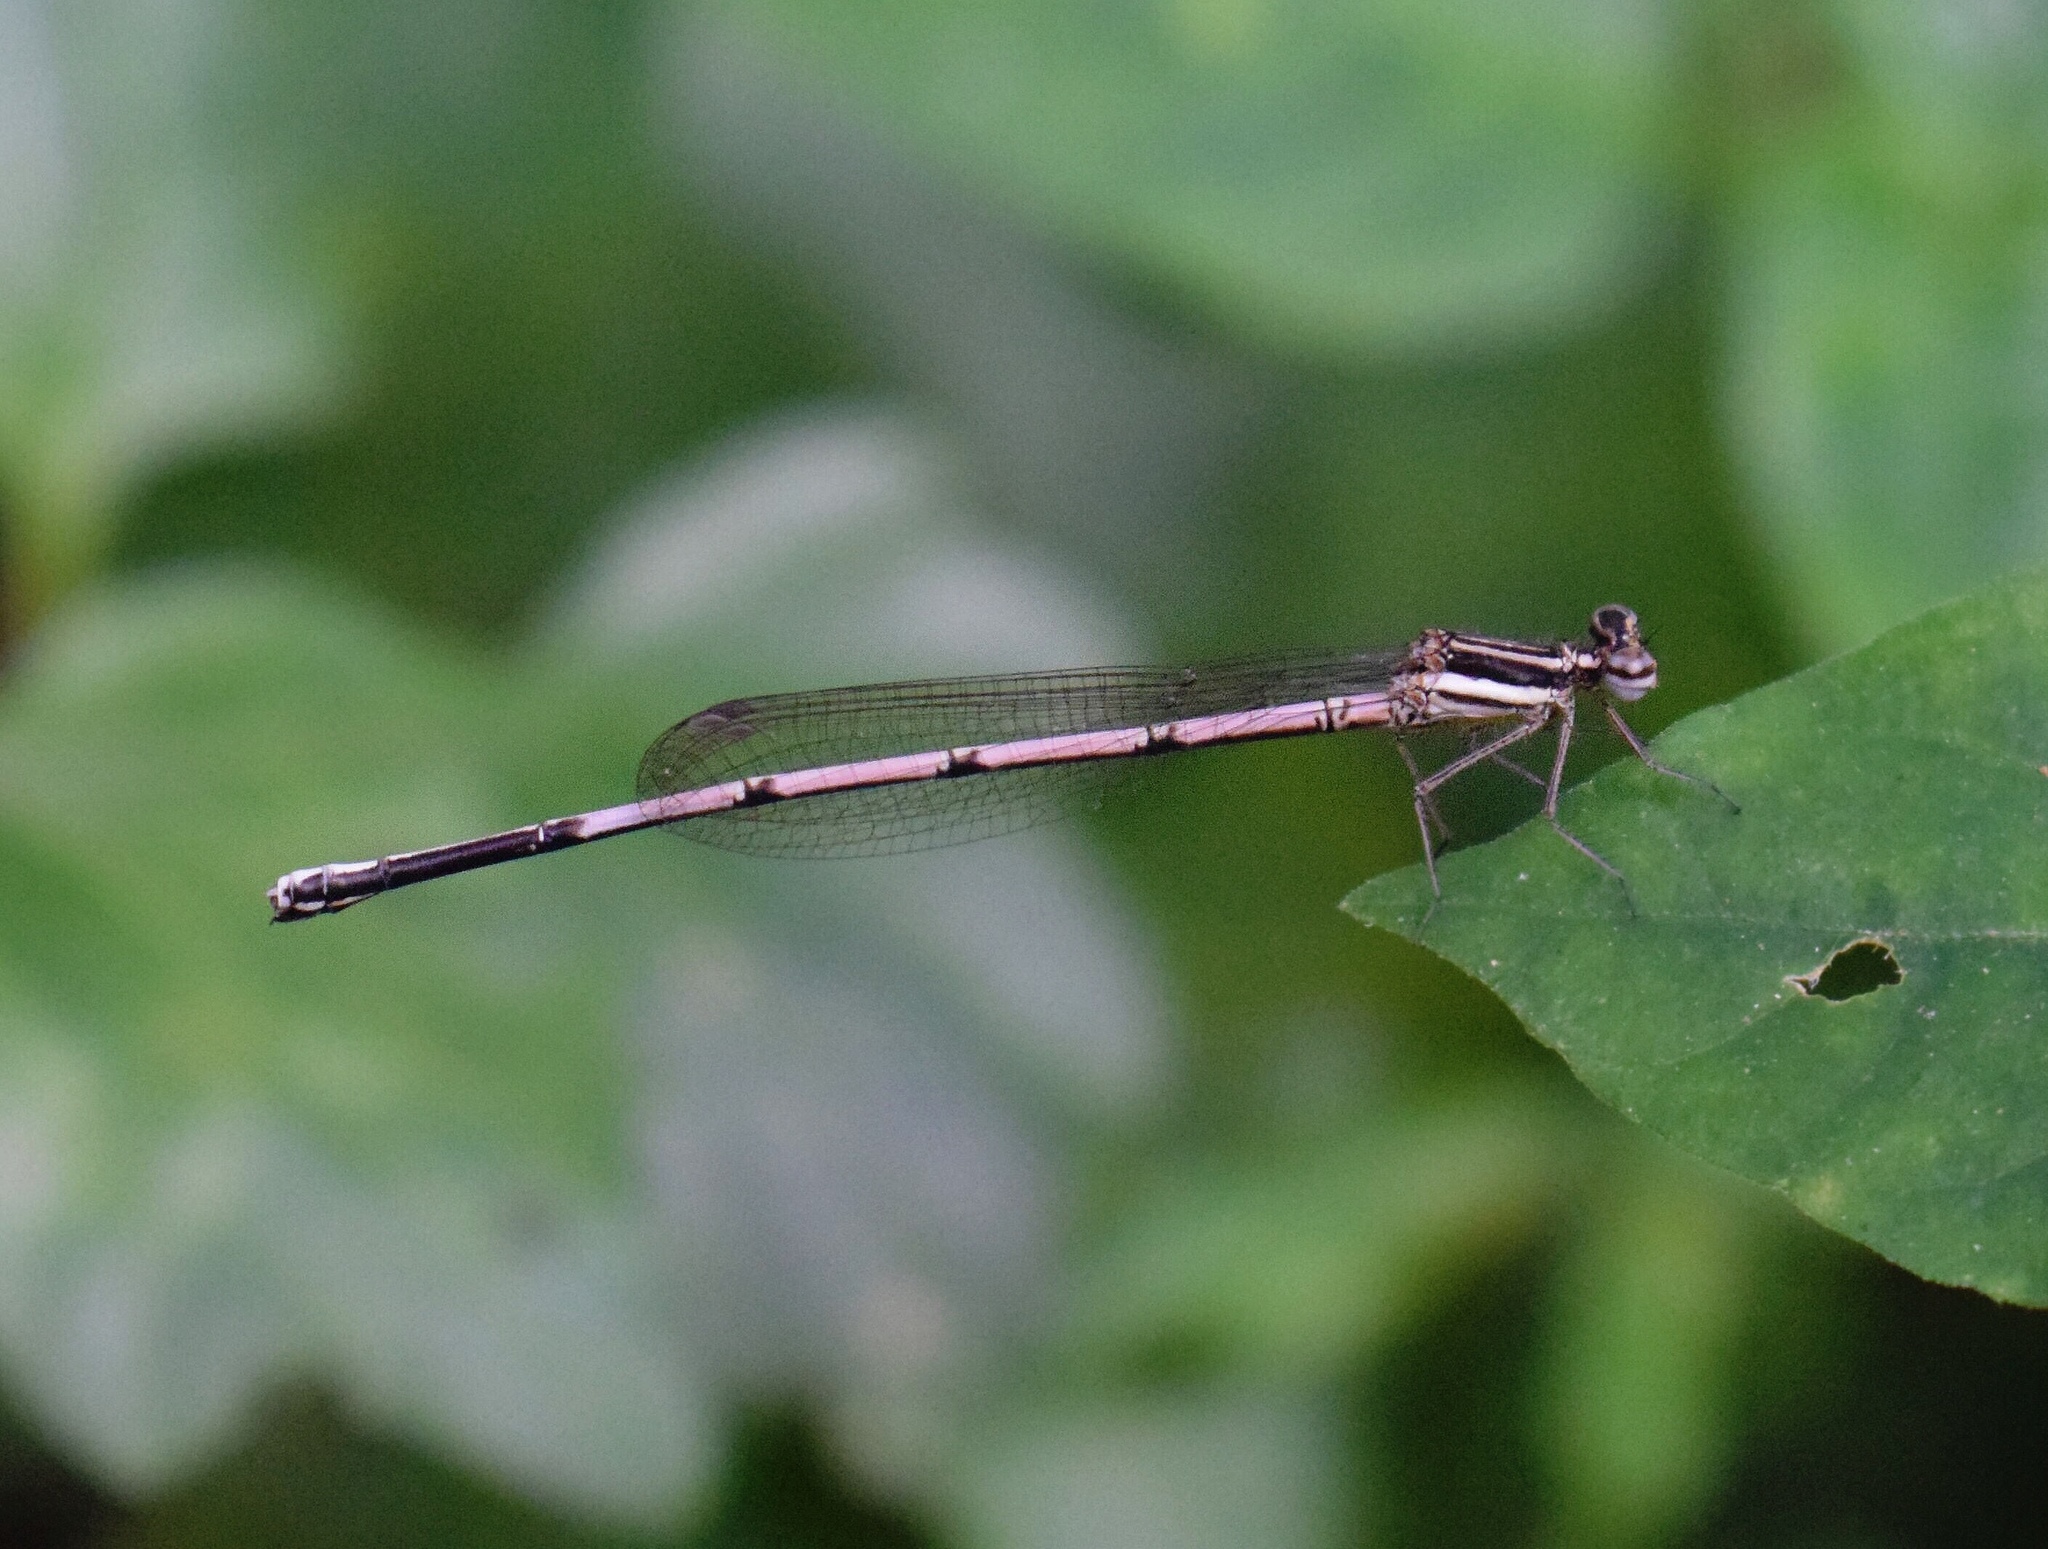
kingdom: Animalia
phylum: Arthropoda
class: Insecta
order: Odonata
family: Platycnemididae
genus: Elattoneura
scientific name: Elattoneura glauca
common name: Common threadtail
